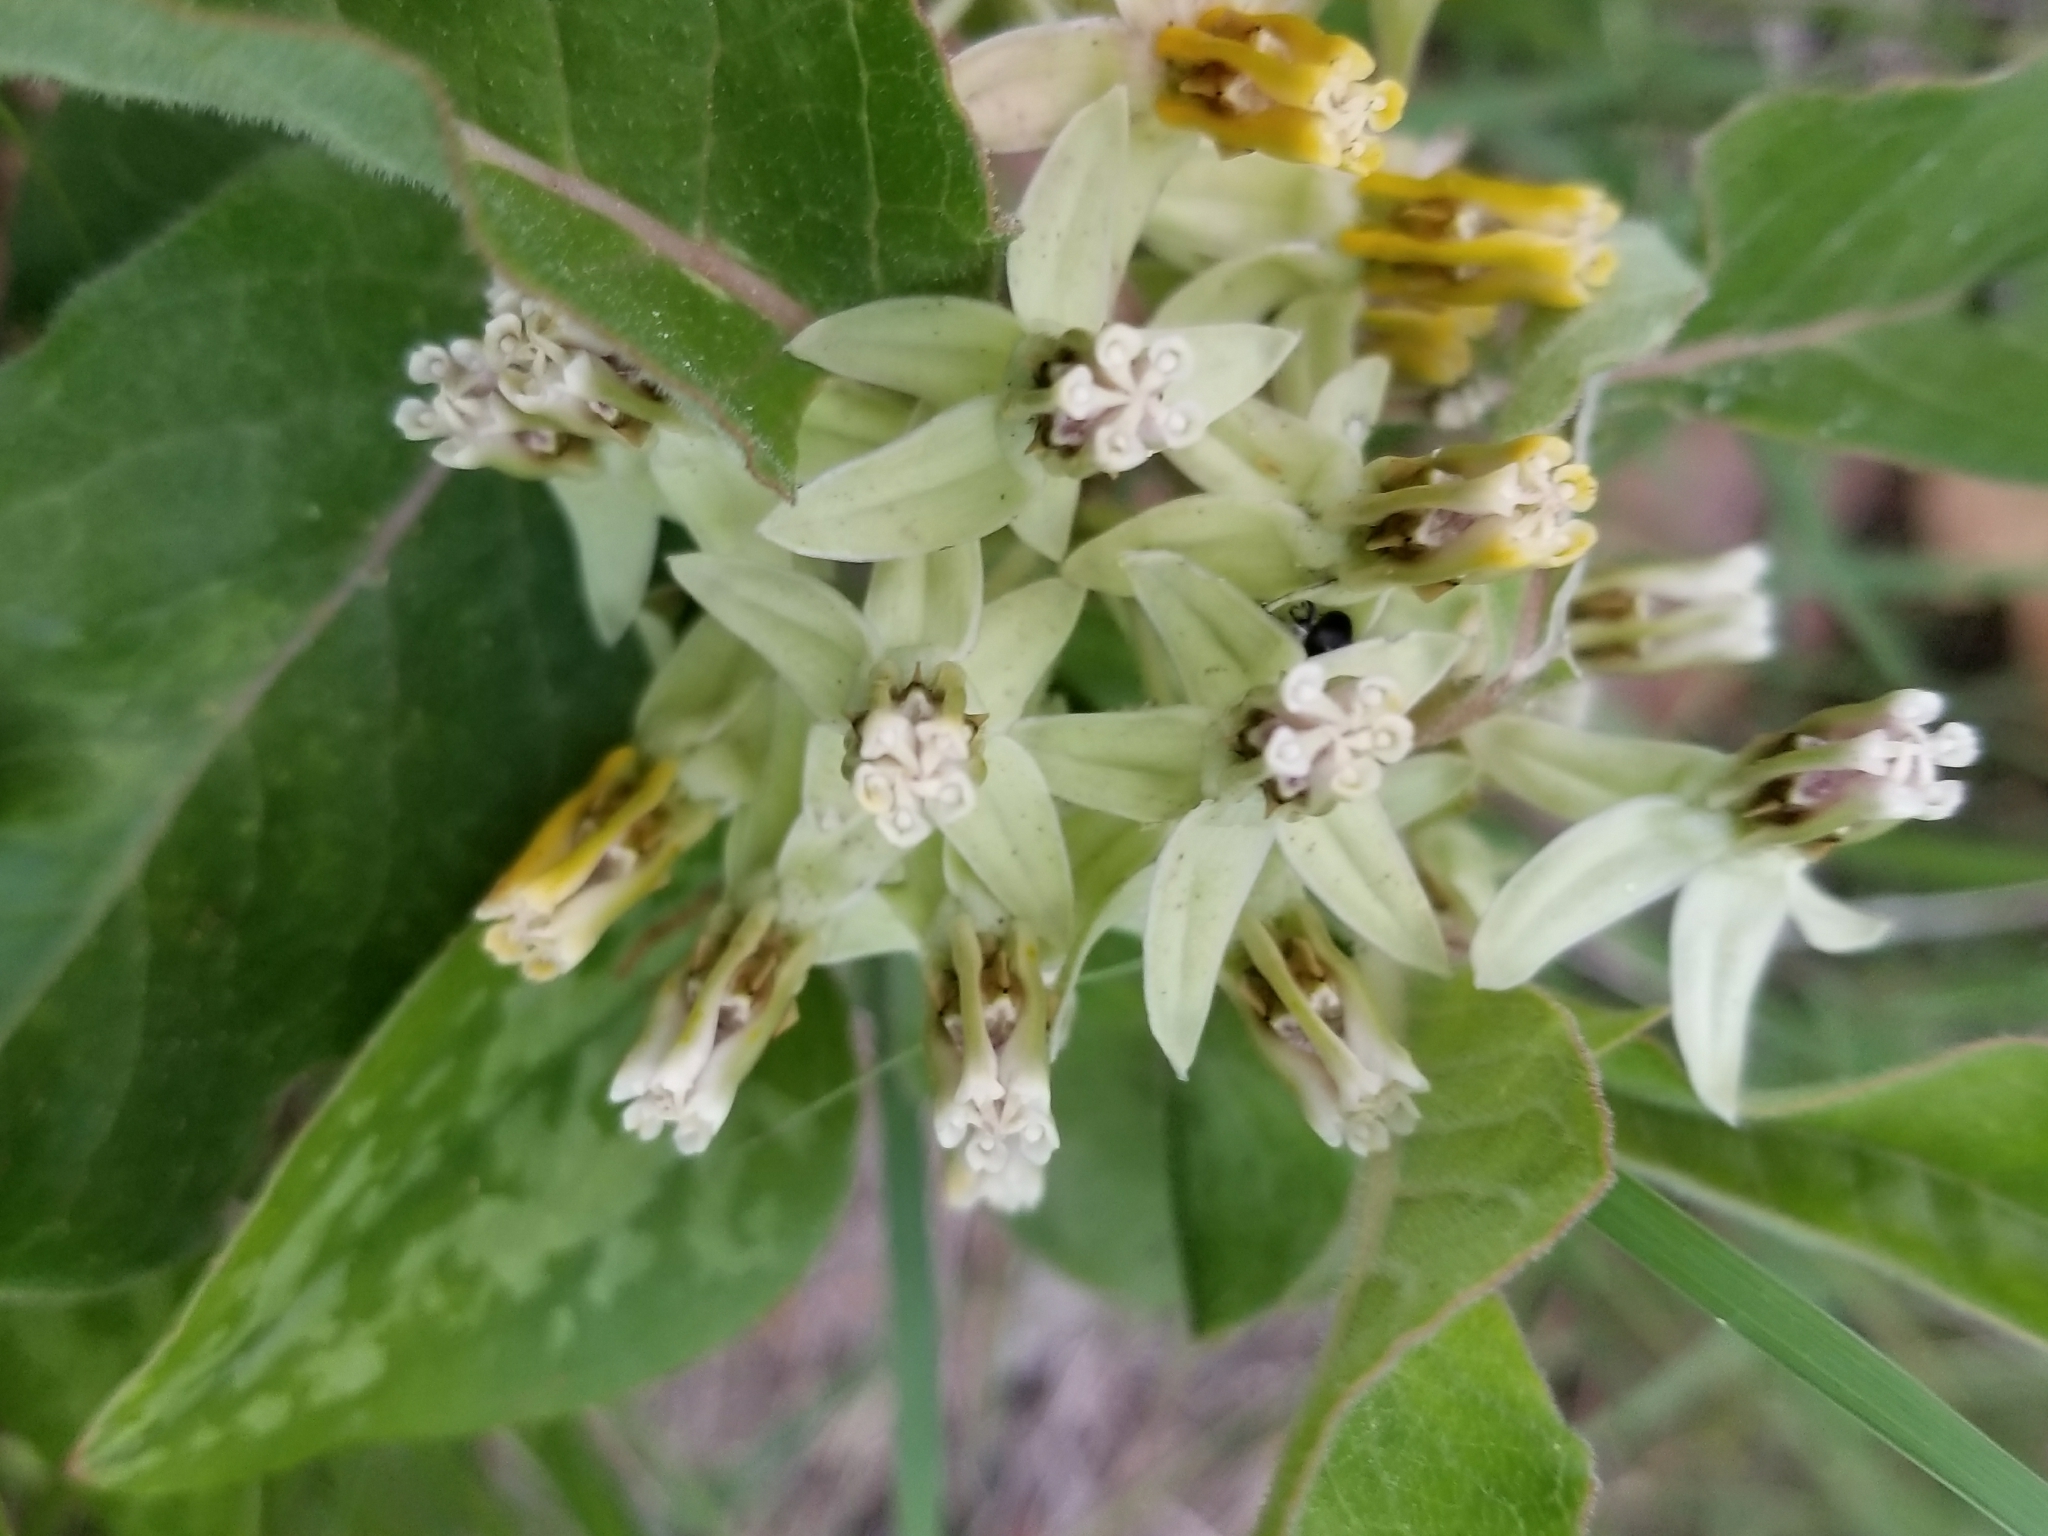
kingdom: Plantae
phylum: Tracheophyta
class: Magnoliopsida
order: Gentianales
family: Apocynaceae
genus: Asclepias
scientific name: Asclepias oenotheroides
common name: Zizotes milkweed
